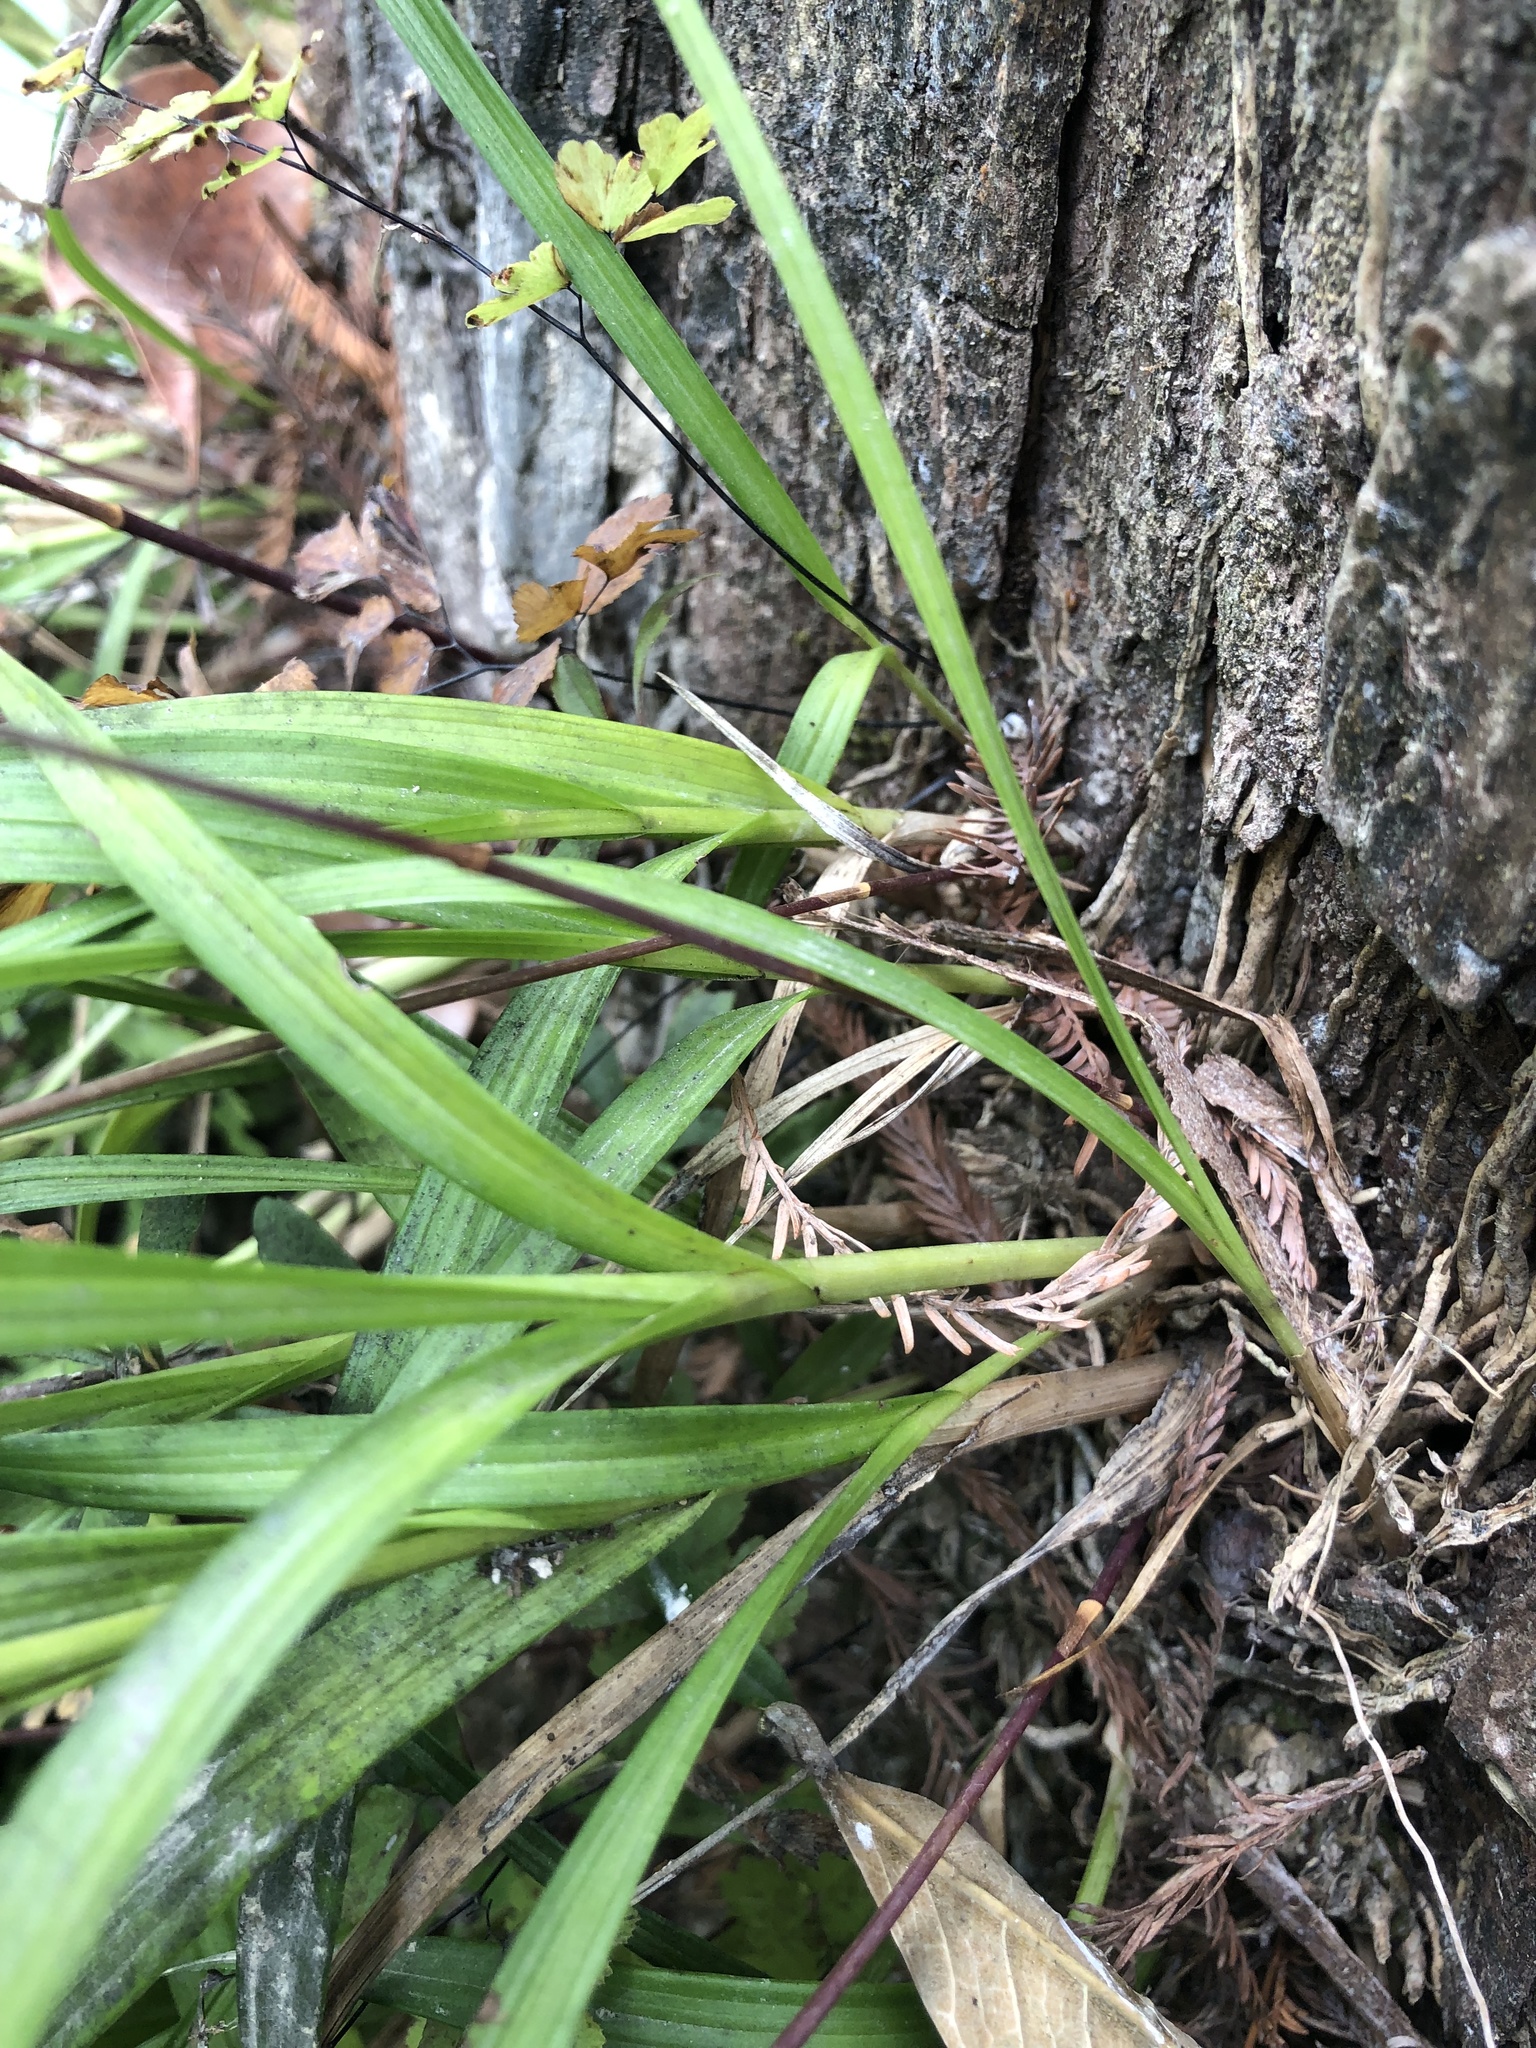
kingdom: Plantae
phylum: Tracheophyta
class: Liliopsida
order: Asparagales
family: Orchidaceae
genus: Bletia
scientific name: Bletia tenuifolia
